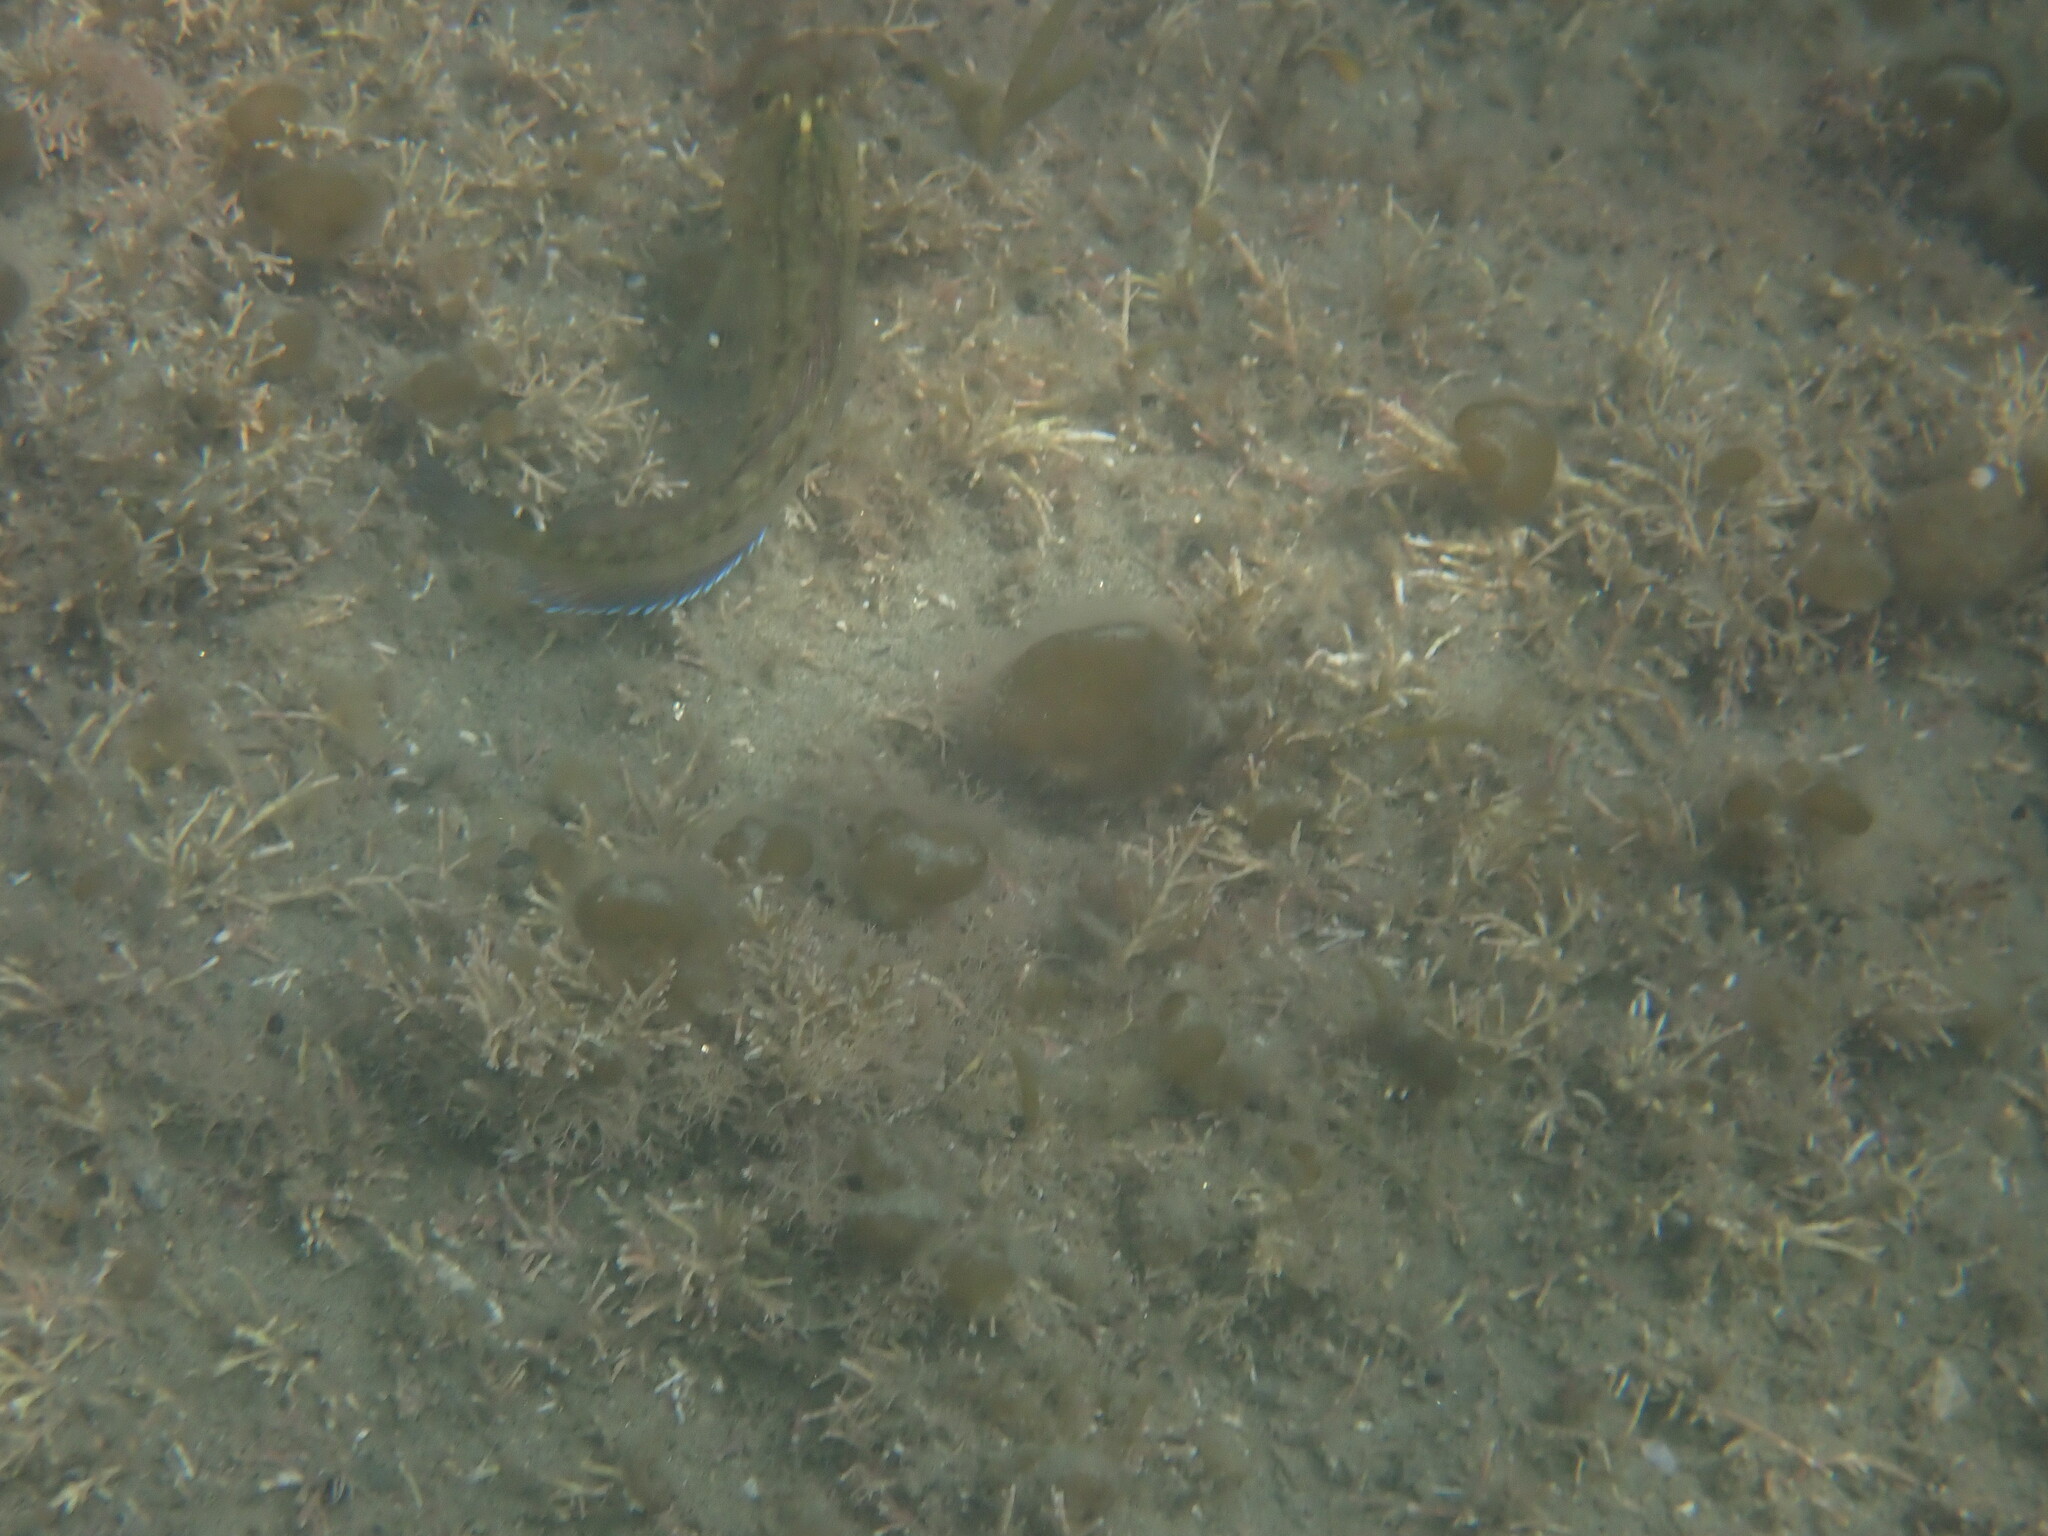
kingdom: Animalia
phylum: Chordata
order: Perciformes
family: Tripterygiidae
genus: Forsterygion
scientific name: Forsterygion lapillum
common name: Common triplefin
